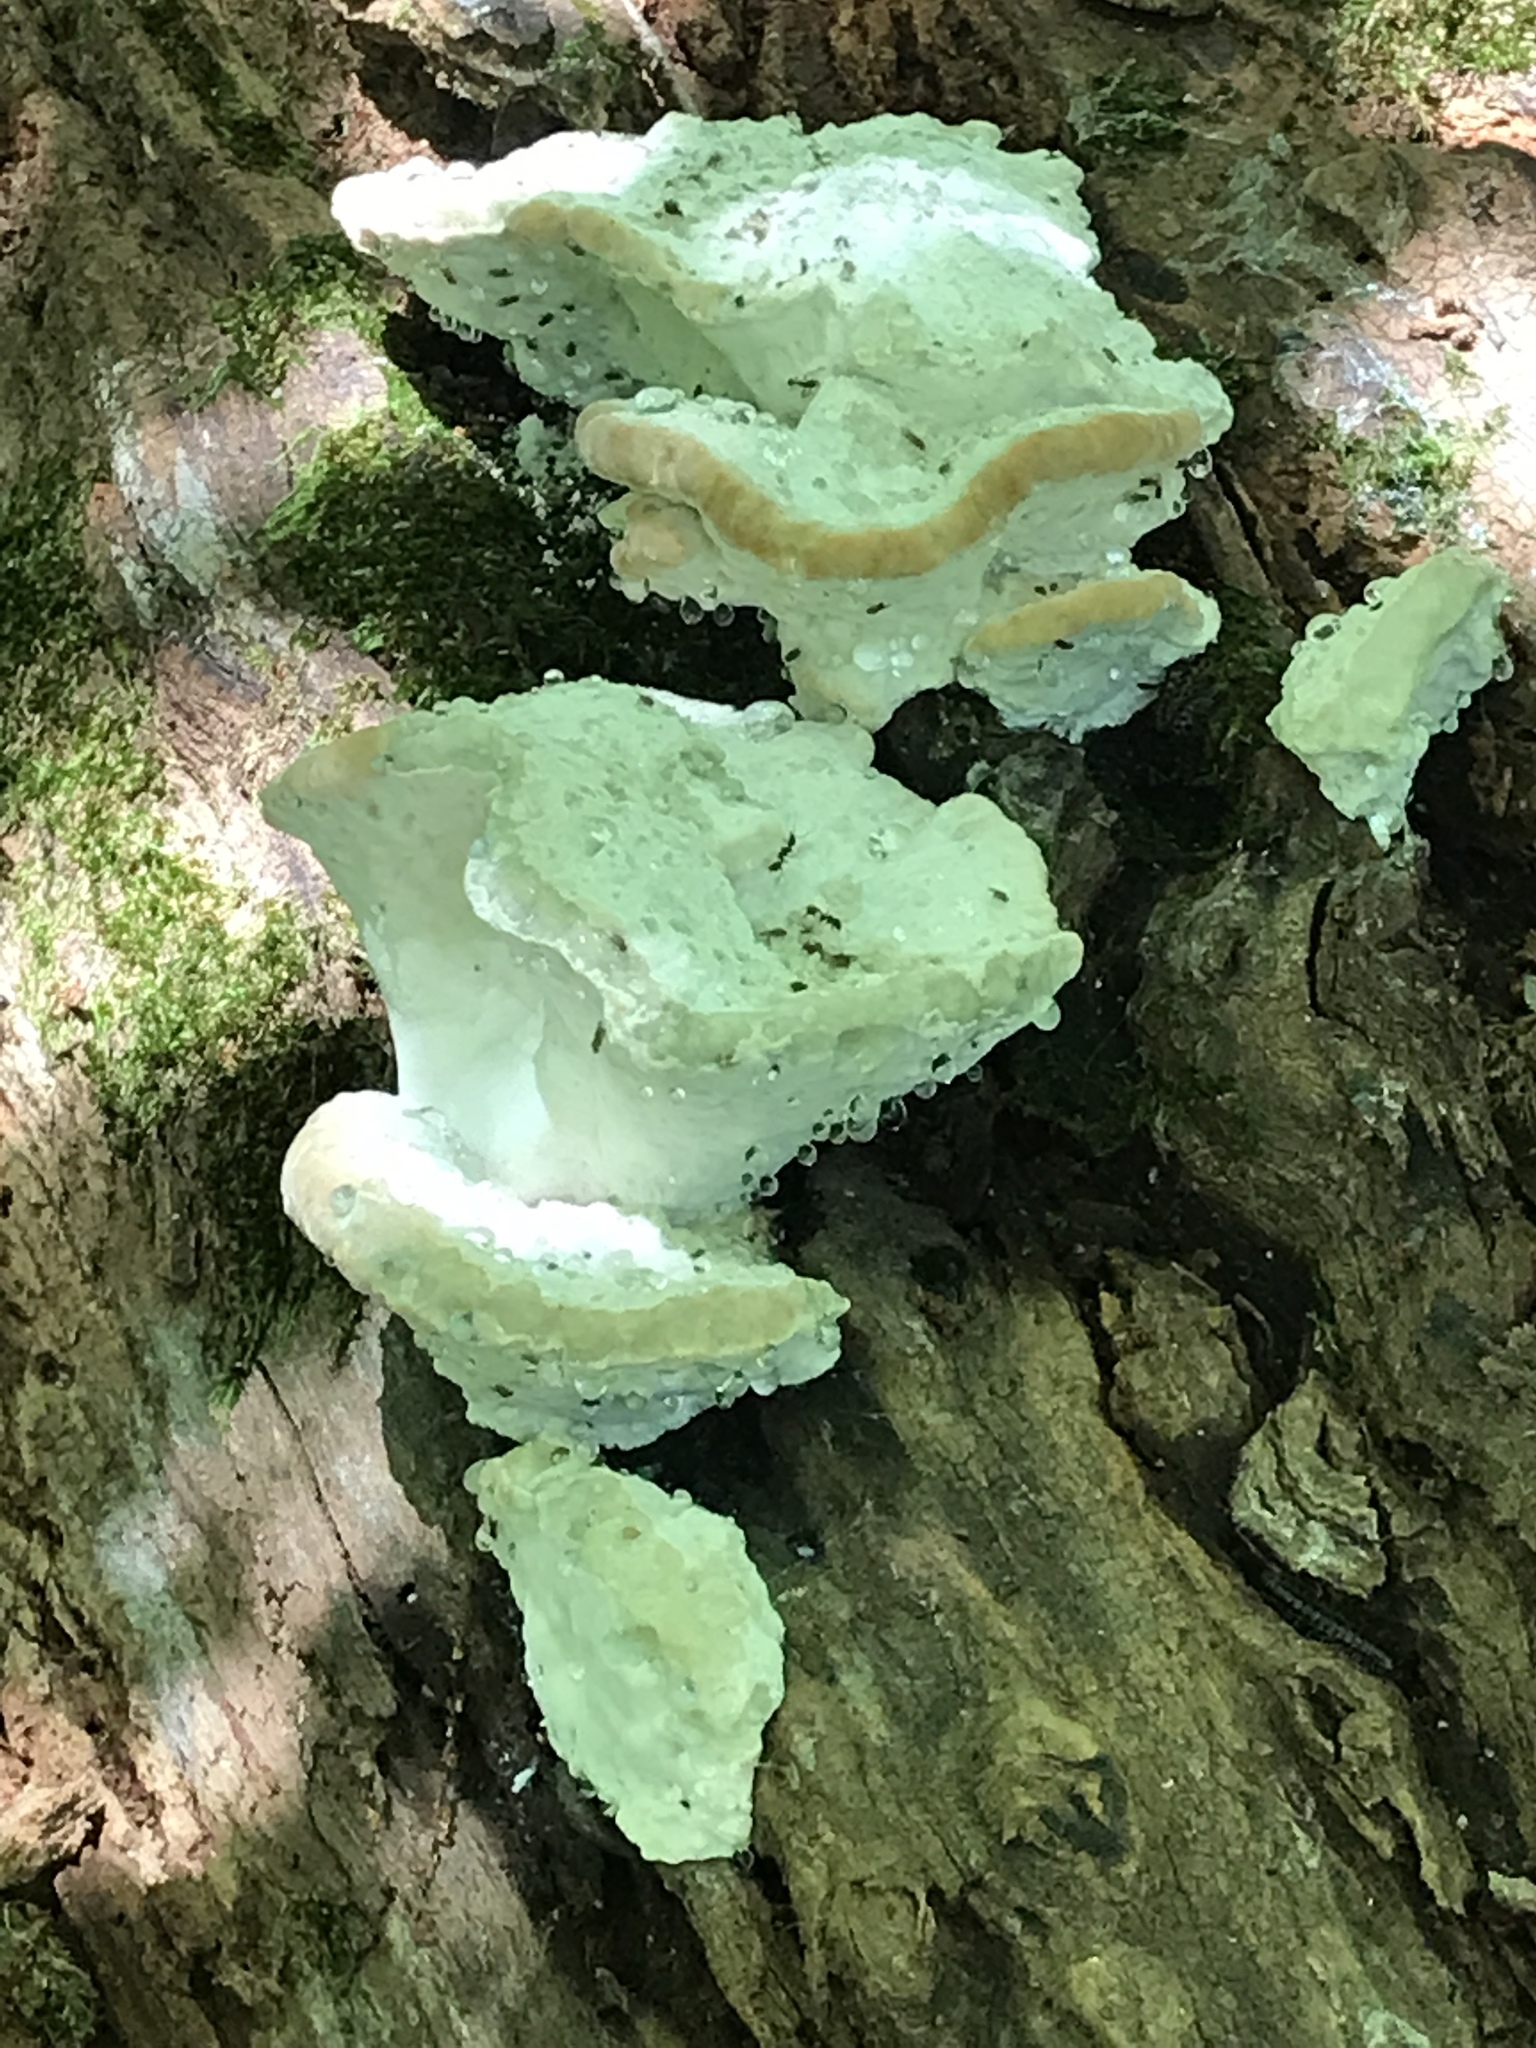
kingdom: Fungi
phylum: Basidiomycota
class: Agaricomycetes
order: Polyporales
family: Fomitopsidaceae
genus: Niveoporofomes
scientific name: Niveoporofomes spraguei
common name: Green cheese polypore
